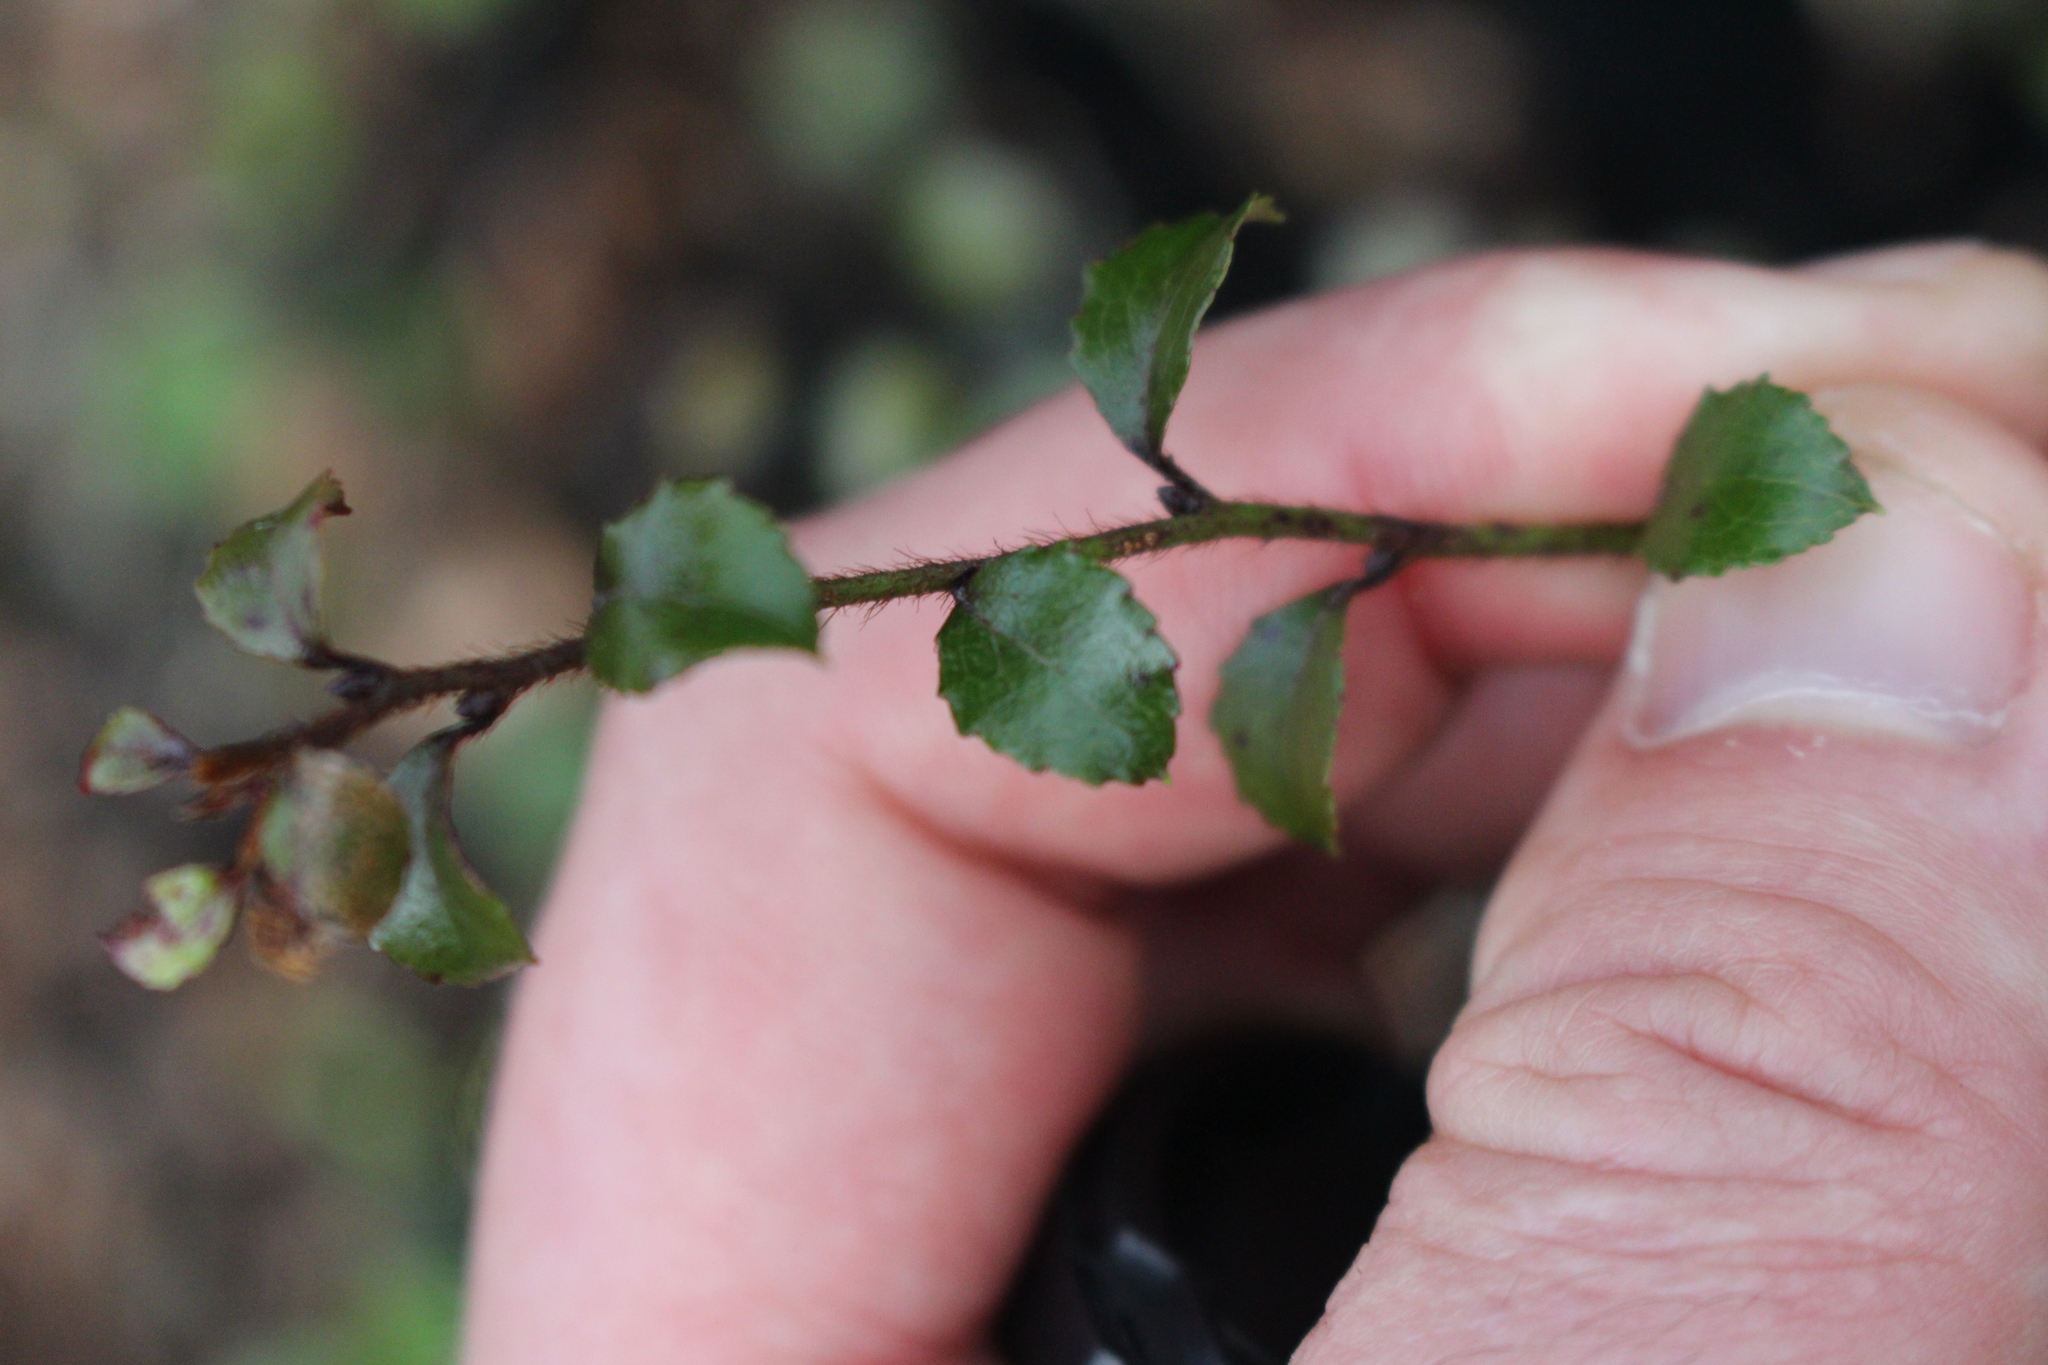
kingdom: Plantae
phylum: Tracheophyta
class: Magnoliopsida
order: Ericales
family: Ericaceae
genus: Gaultheria
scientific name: Gaultheria antipoda
